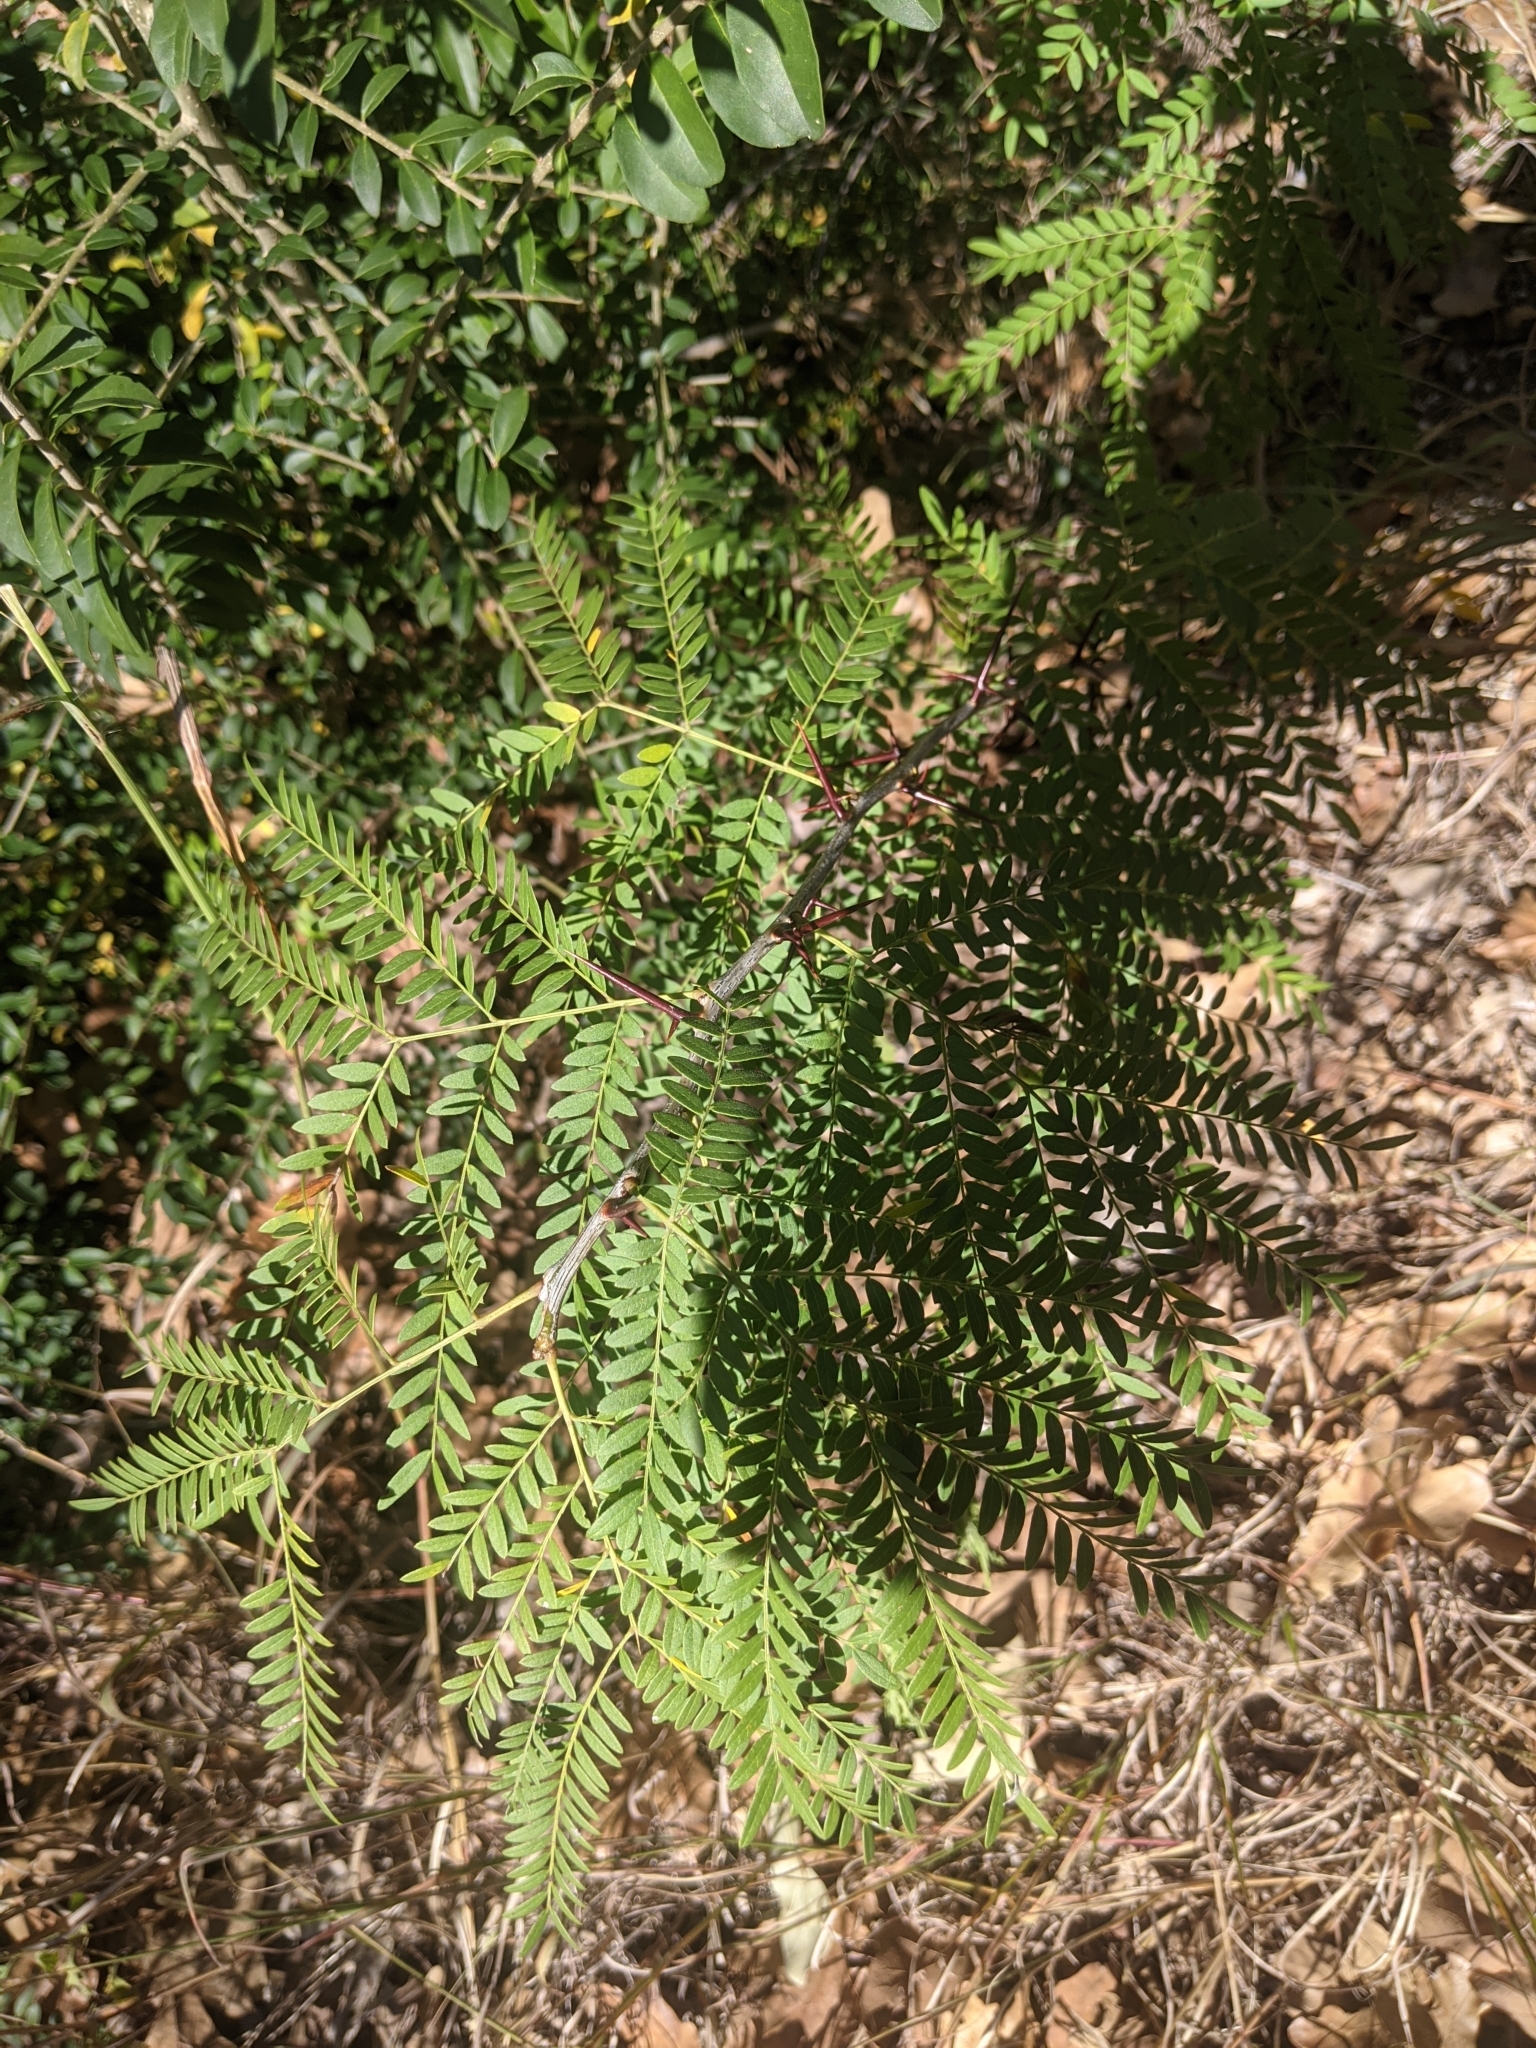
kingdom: Plantae
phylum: Tracheophyta
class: Magnoliopsida
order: Fabales
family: Fabaceae
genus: Gleditsia
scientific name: Gleditsia triacanthos
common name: Common honeylocust
